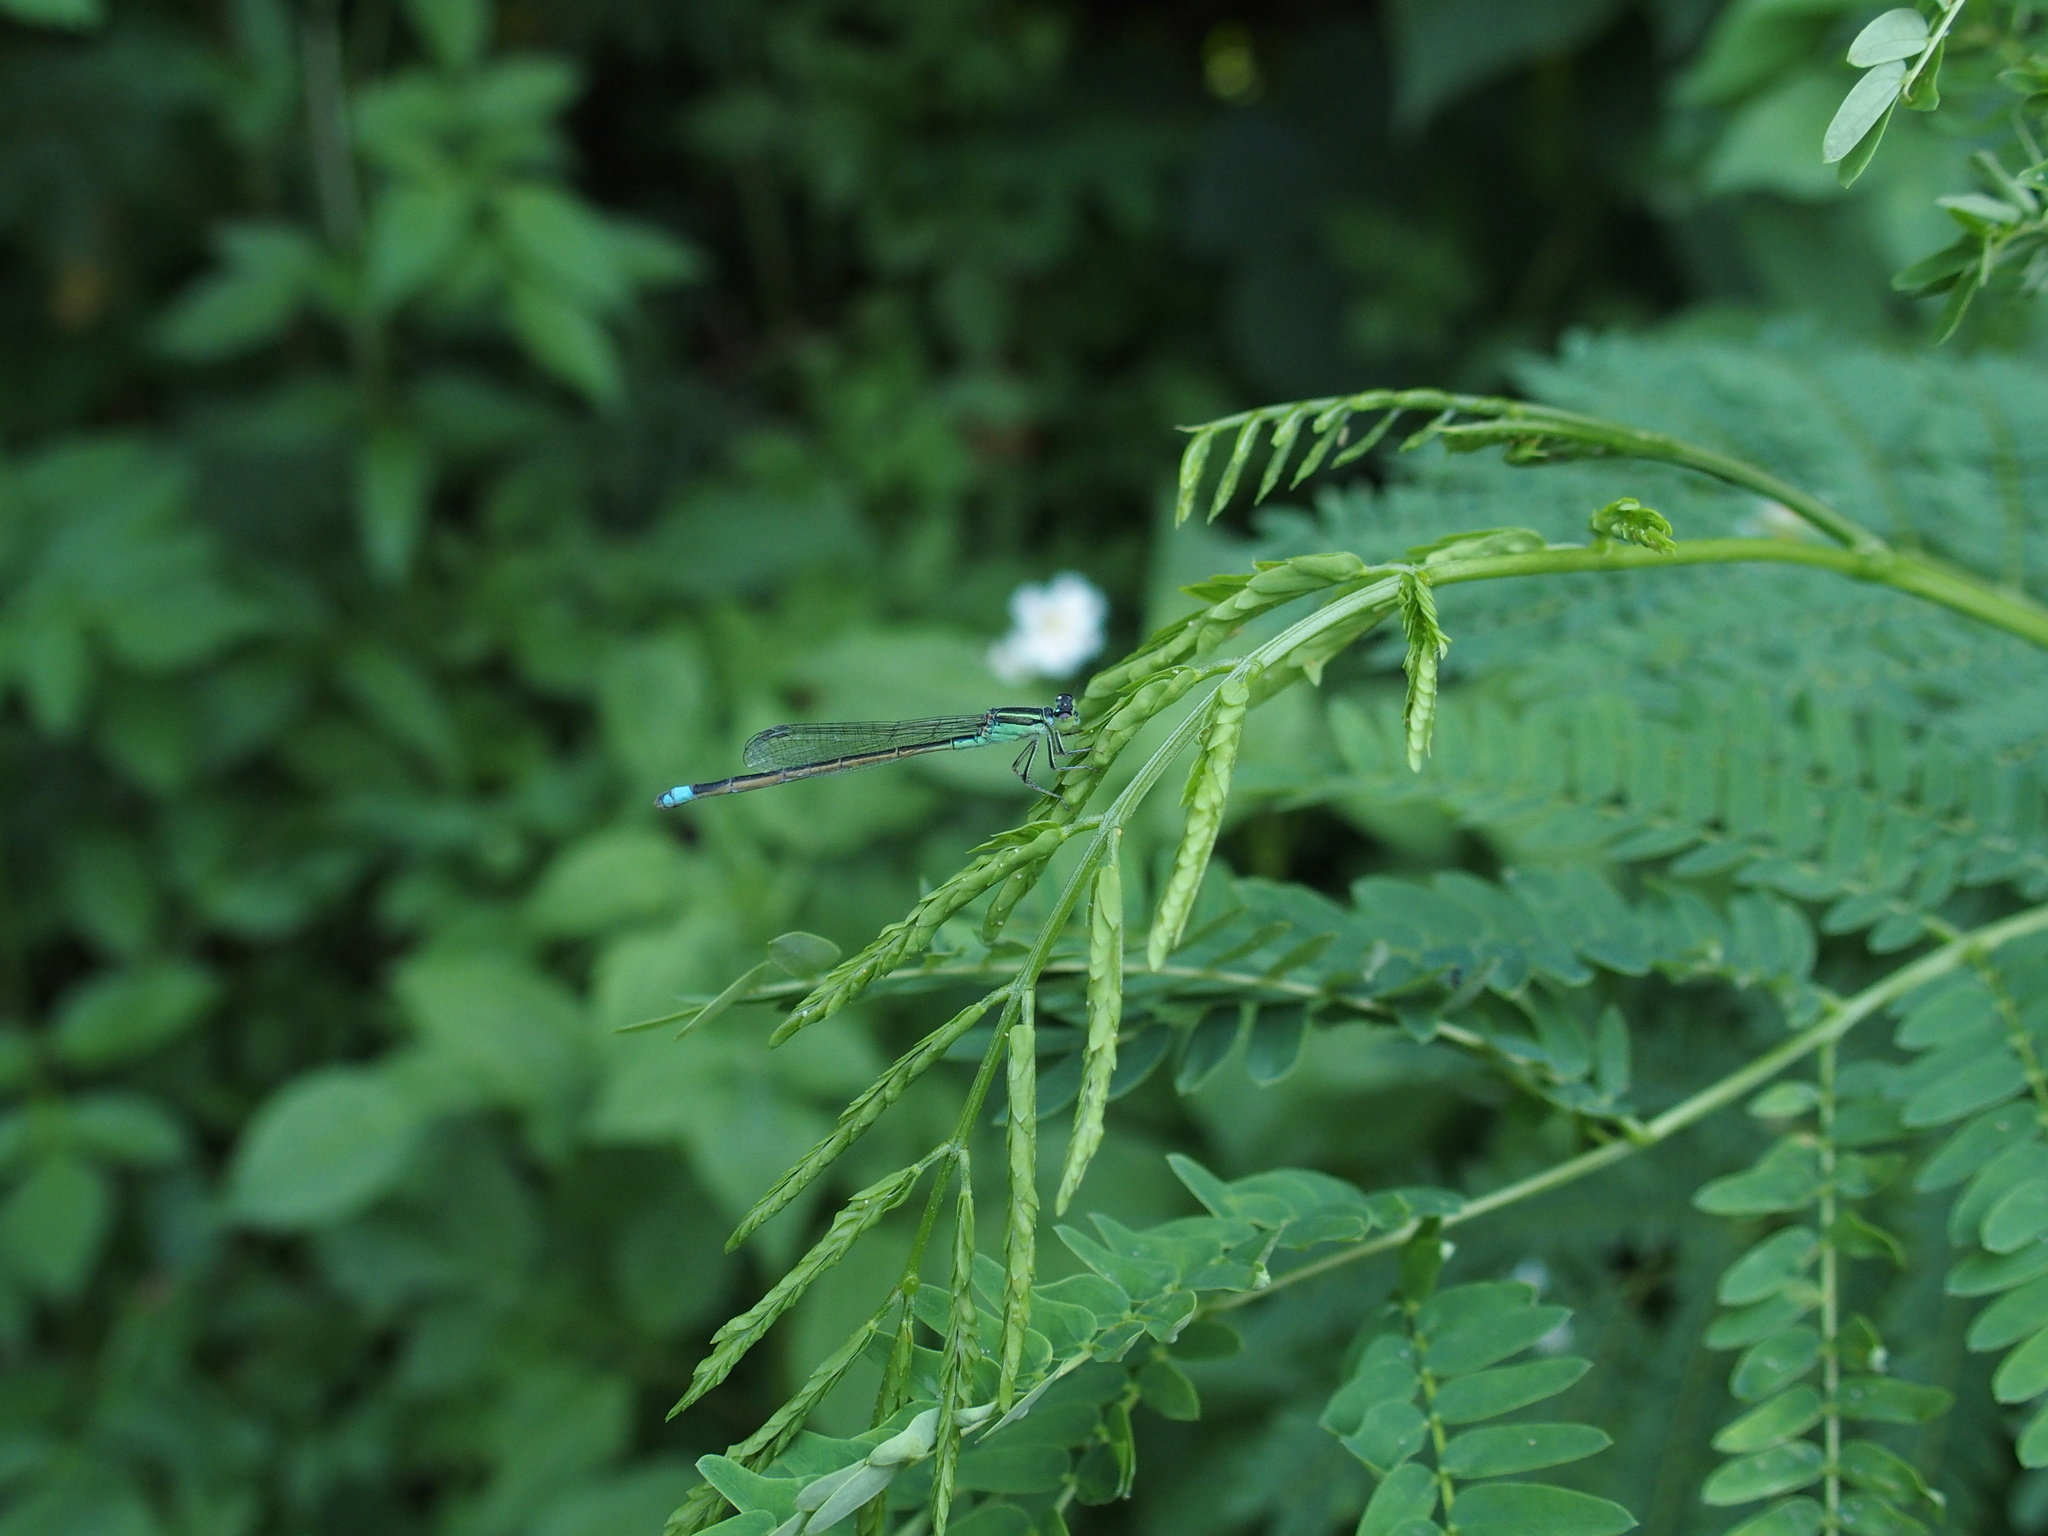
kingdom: Animalia
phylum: Arthropoda
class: Insecta
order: Odonata
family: Coenagrionidae
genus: Ischnura
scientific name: Ischnura senegalensis
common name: Tropical bluetail
